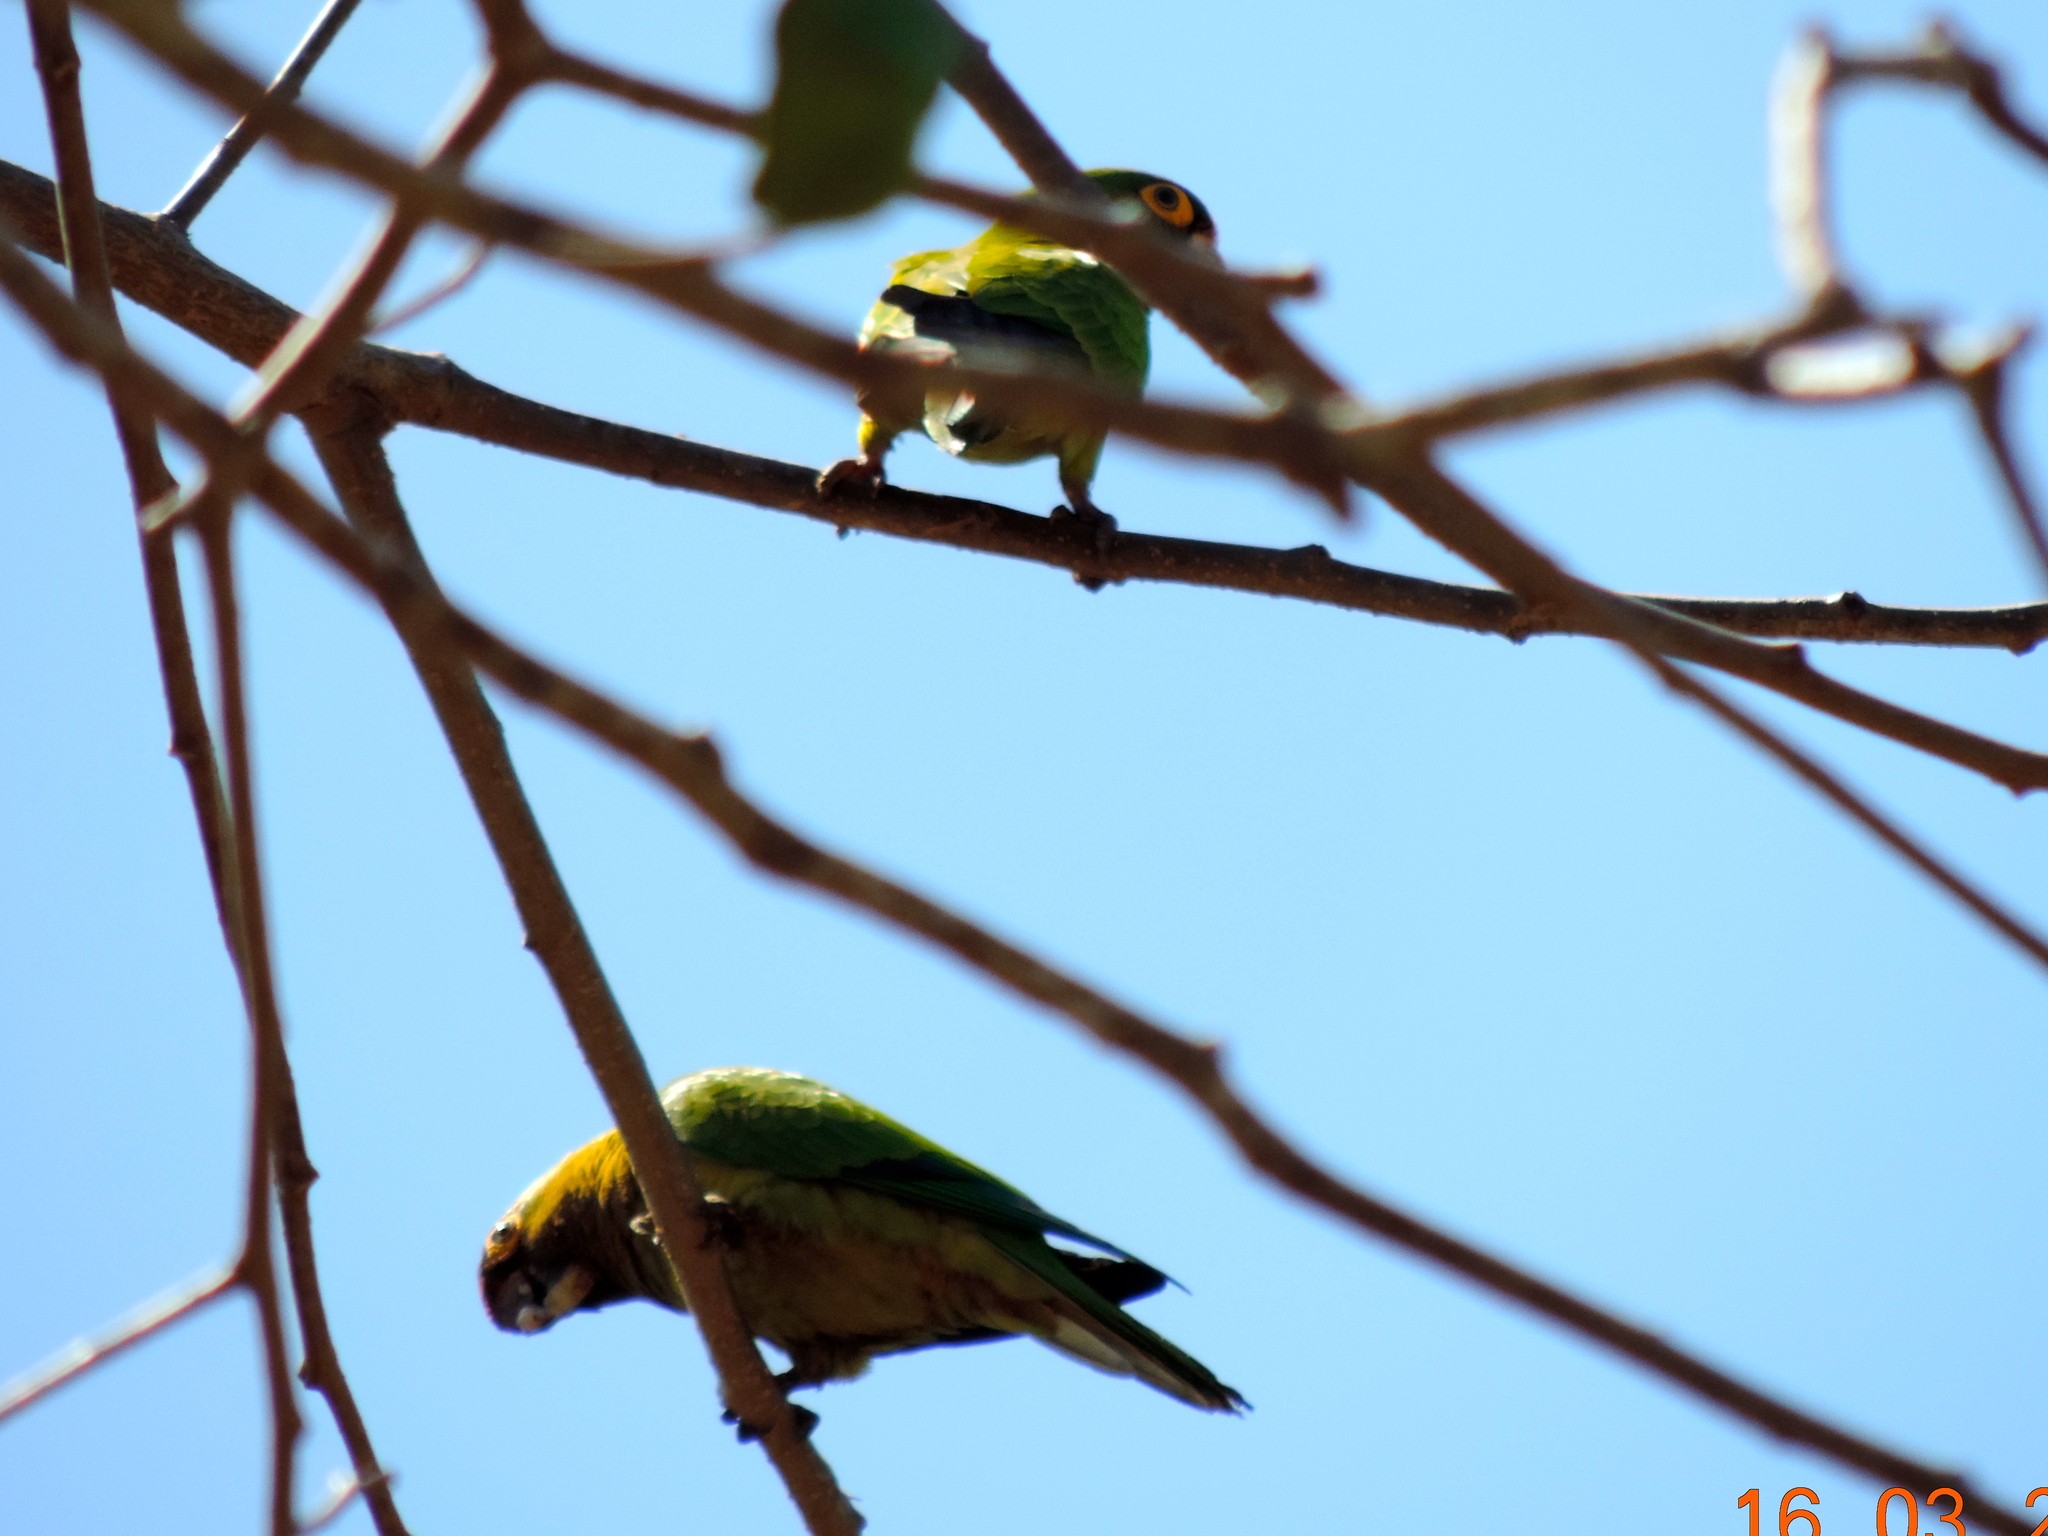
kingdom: Animalia
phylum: Chordata
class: Aves
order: Psittaciformes
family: Psittacidae
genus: Aratinga
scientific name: Aratinga canicularis
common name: Orange-fronted parakeet
